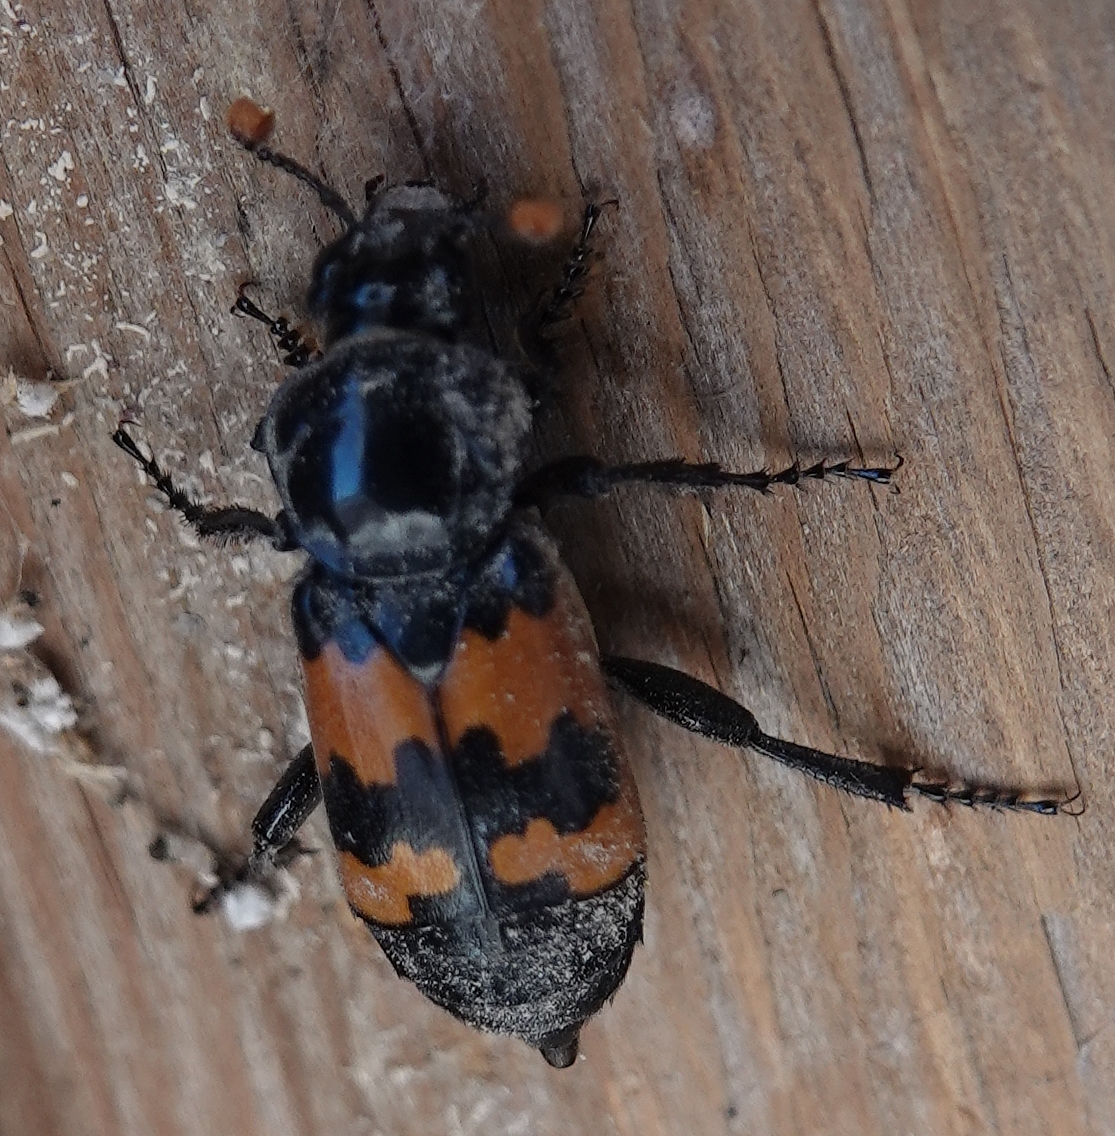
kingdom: Animalia
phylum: Arthropoda
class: Insecta
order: Coleoptera
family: Staphylinidae
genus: Nicrophorus
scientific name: Nicrophorus marginatus
